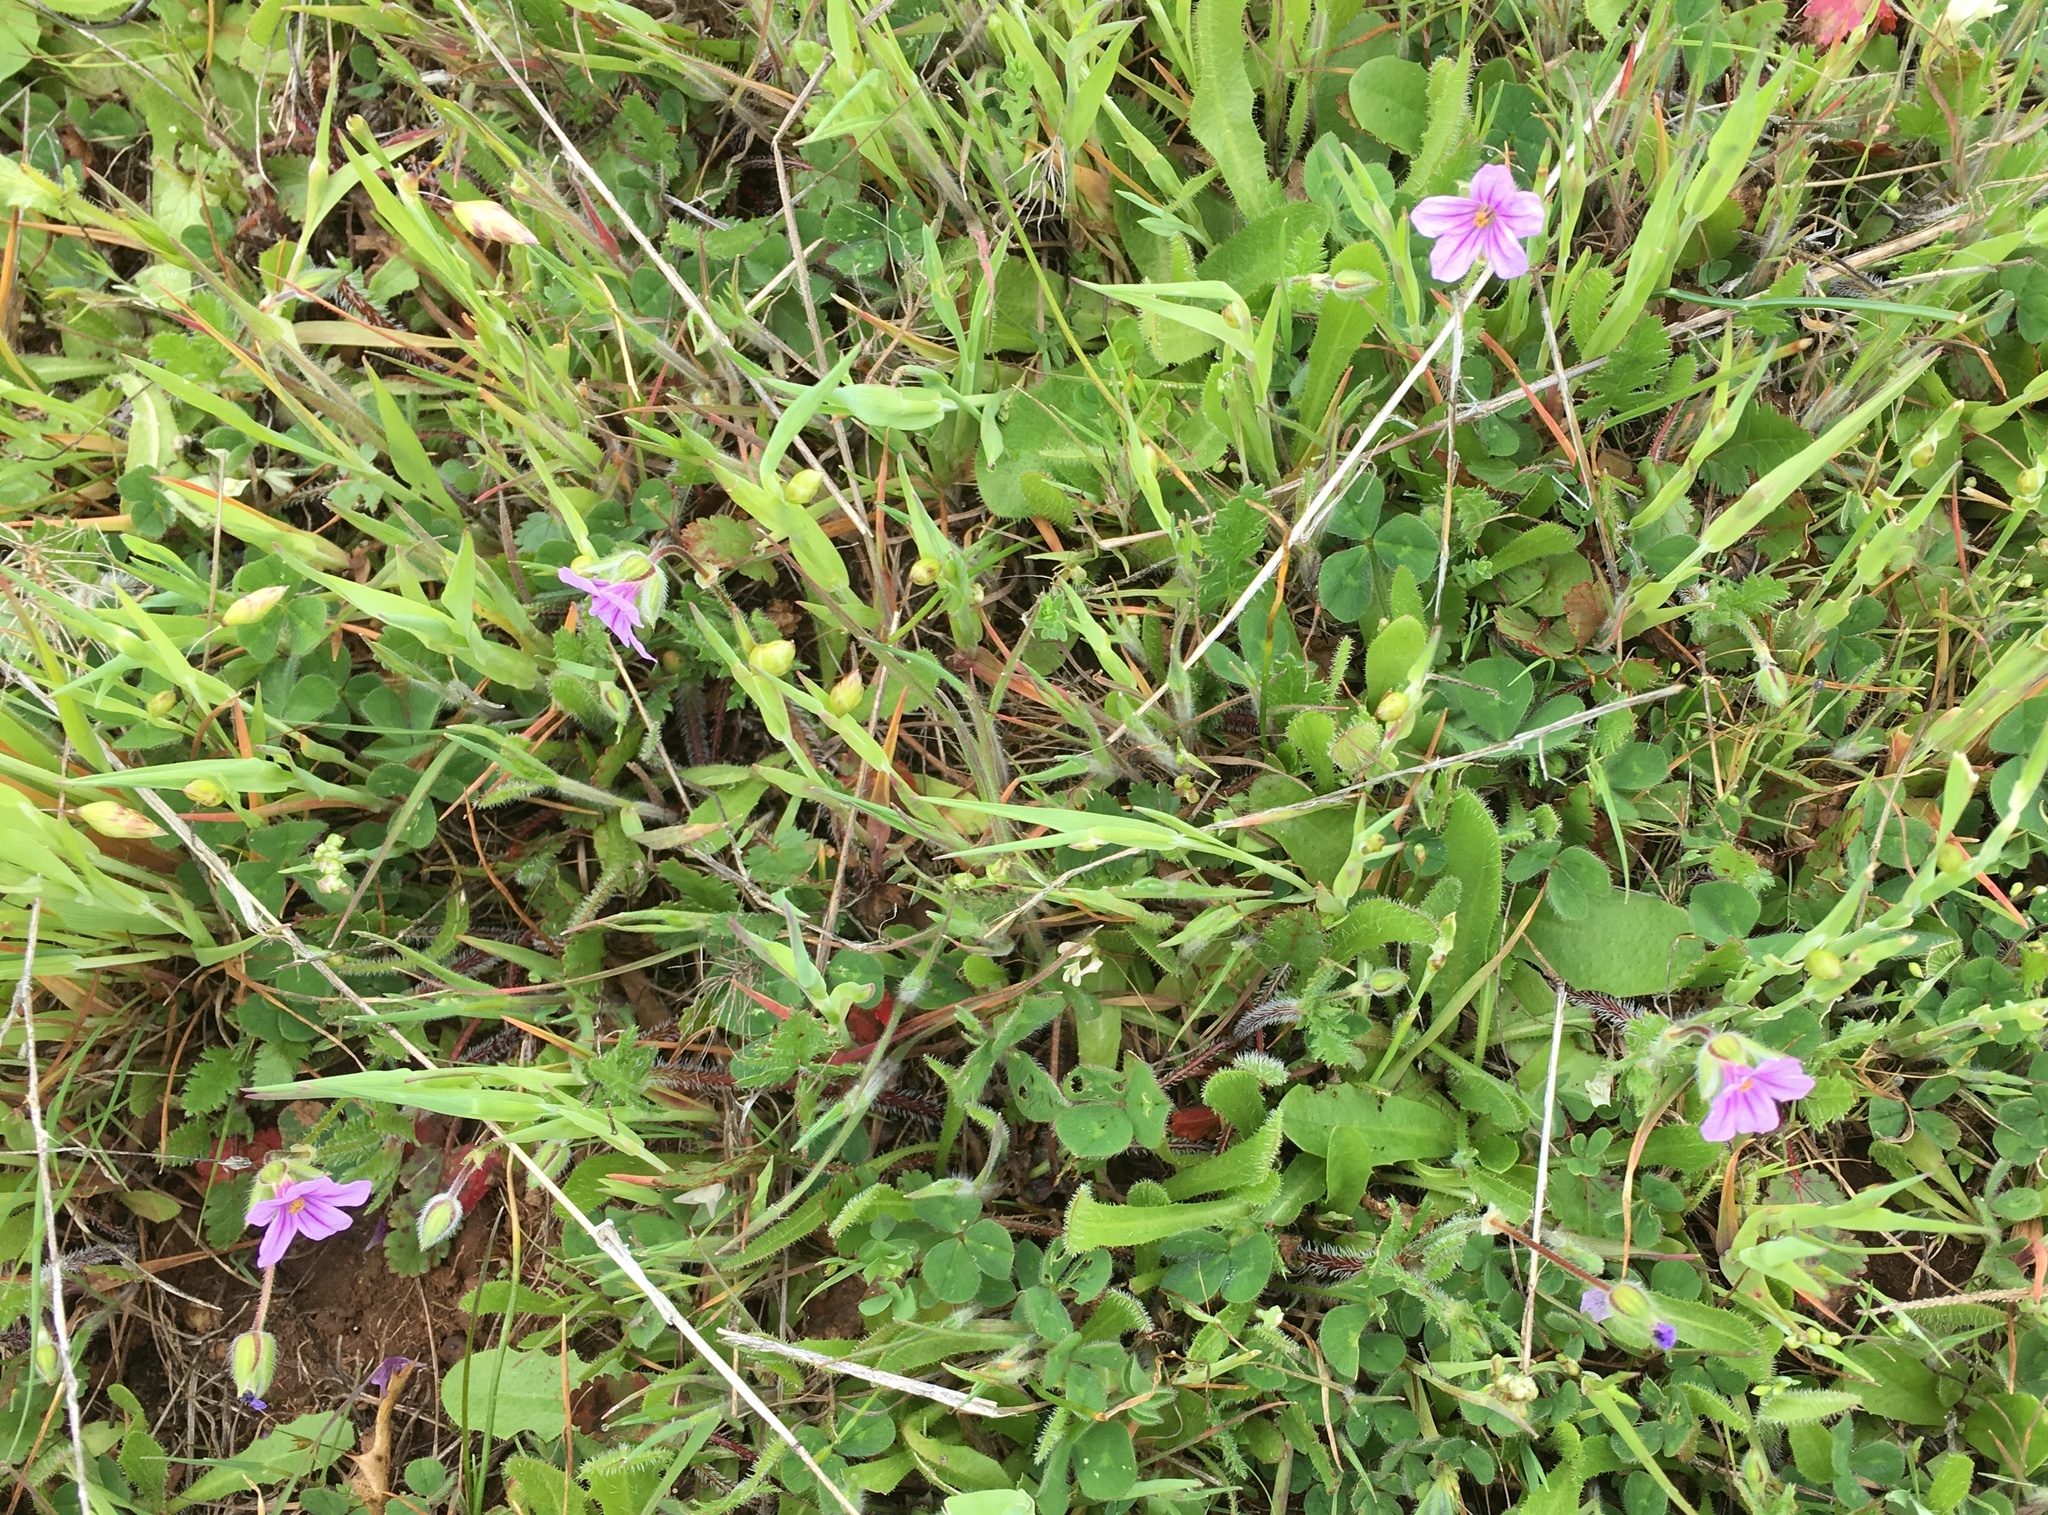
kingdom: Plantae
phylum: Tracheophyta
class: Magnoliopsida
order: Geraniales
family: Geraniaceae
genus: Erodium
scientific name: Erodium botrys
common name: Mediterranean stork's-bill
